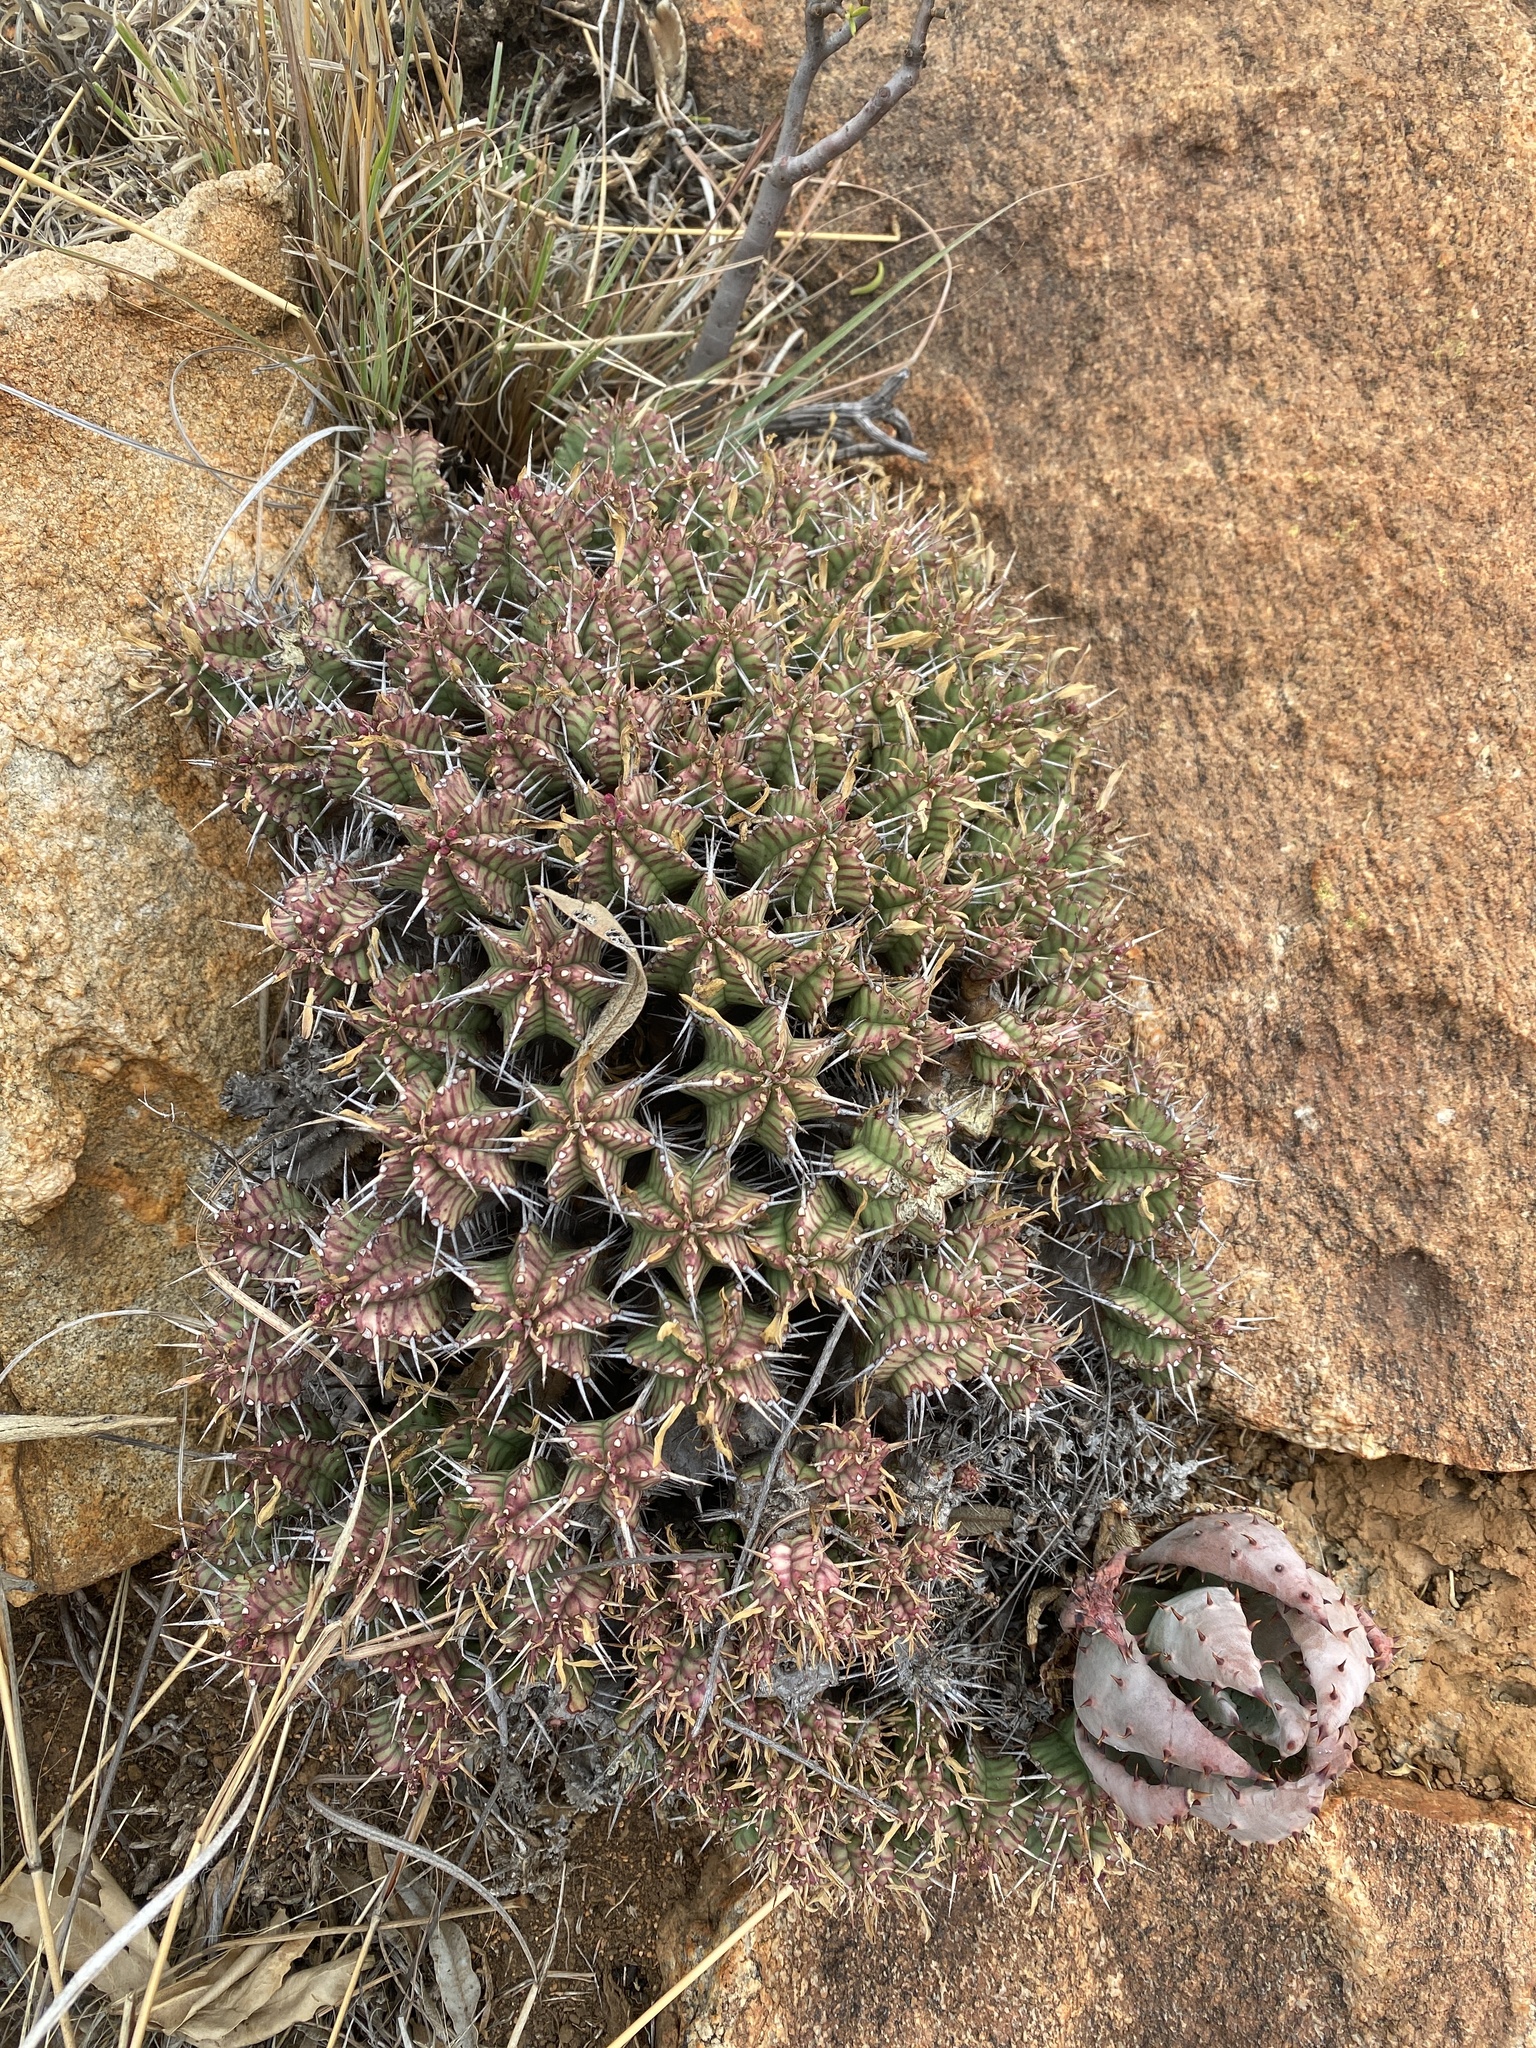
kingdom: Plantae
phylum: Tracheophyta
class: Magnoliopsida
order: Malpighiales
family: Euphorbiaceae
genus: Euphorbia
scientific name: Euphorbia pulvinata
